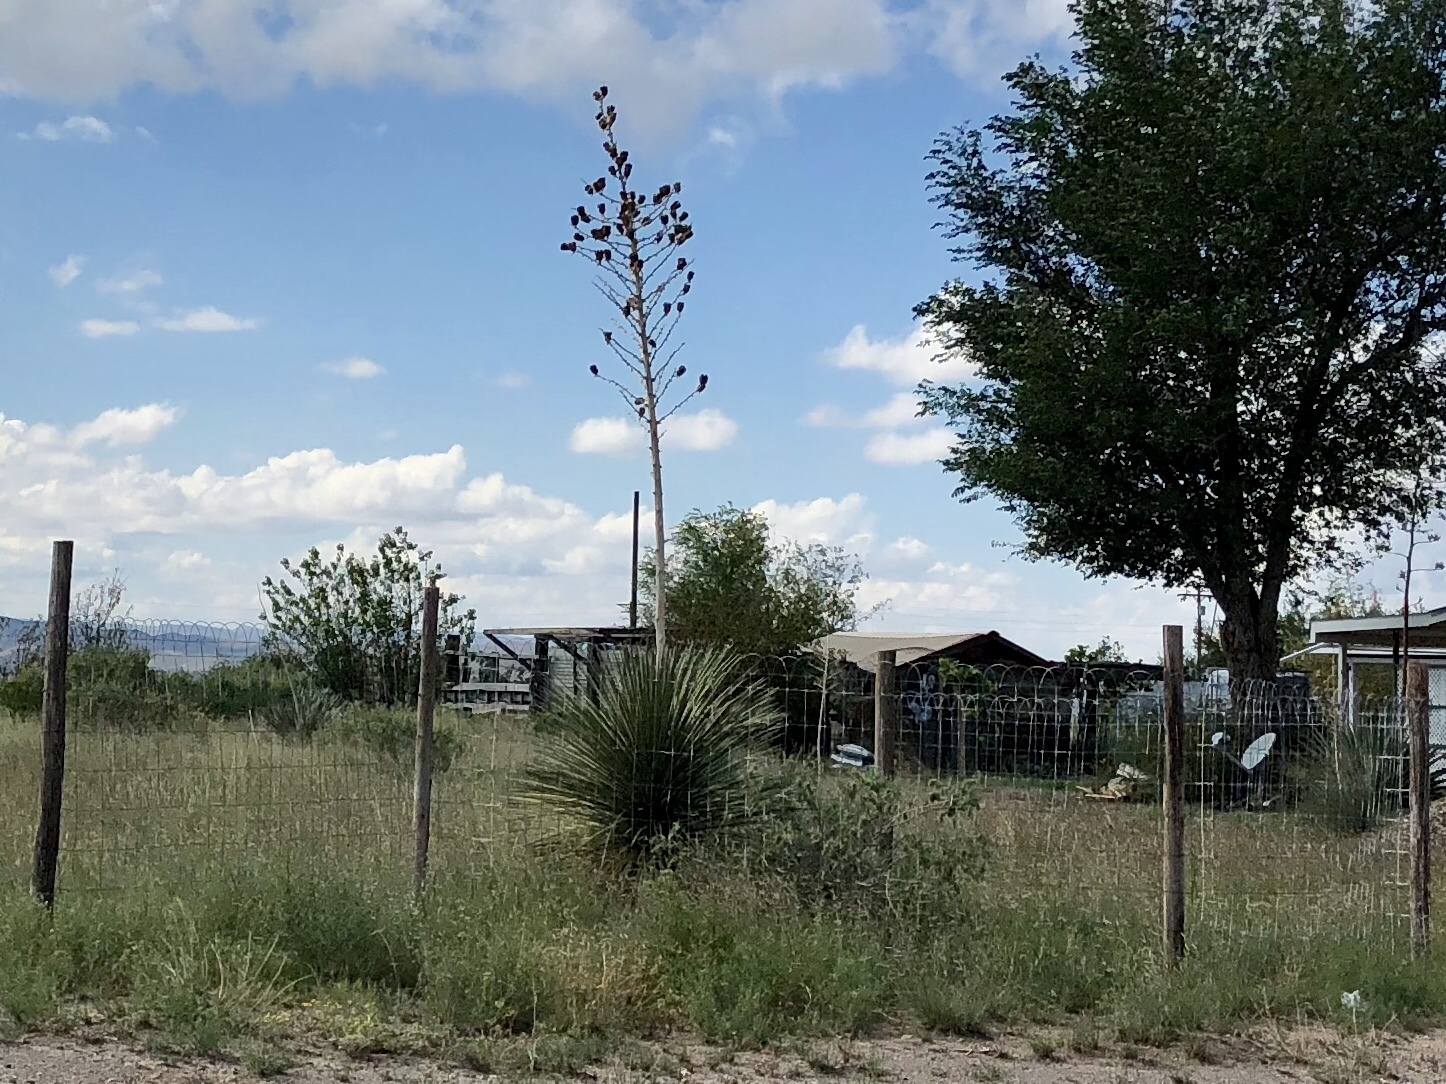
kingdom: Plantae
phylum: Tracheophyta
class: Liliopsida
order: Asparagales
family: Asparagaceae
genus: Yucca
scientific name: Yucca elata
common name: Palmella
